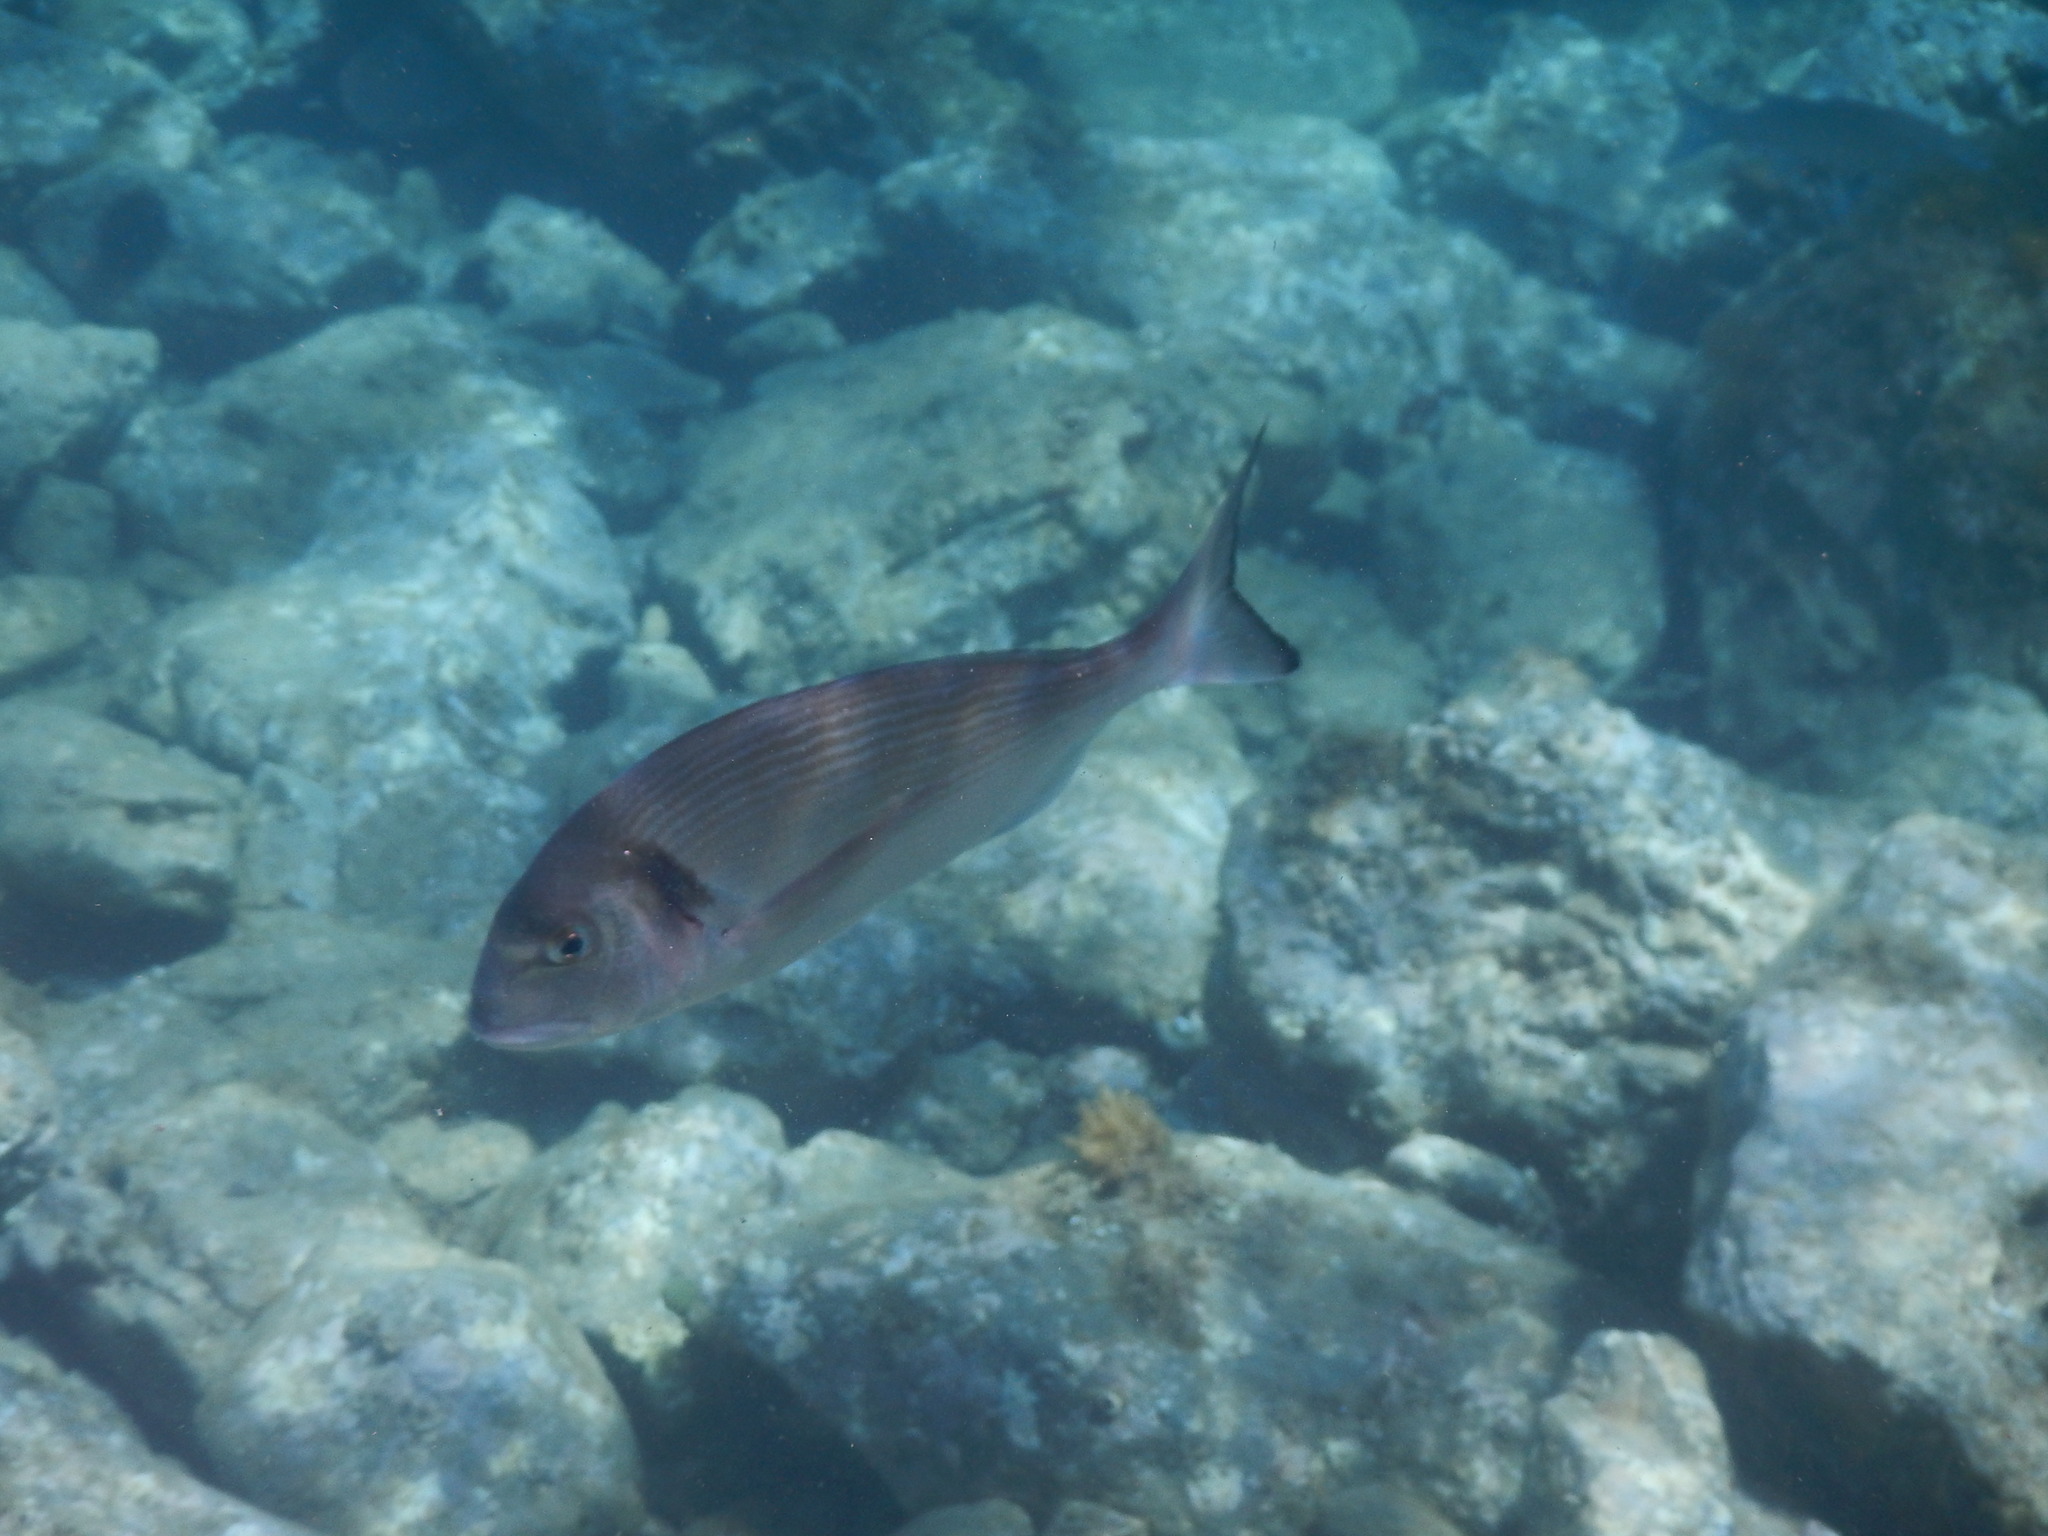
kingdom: Animalia
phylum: Chordata
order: Perciformes
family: Sparidae
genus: Sparus
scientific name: Sparus aurata
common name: Gilthead
